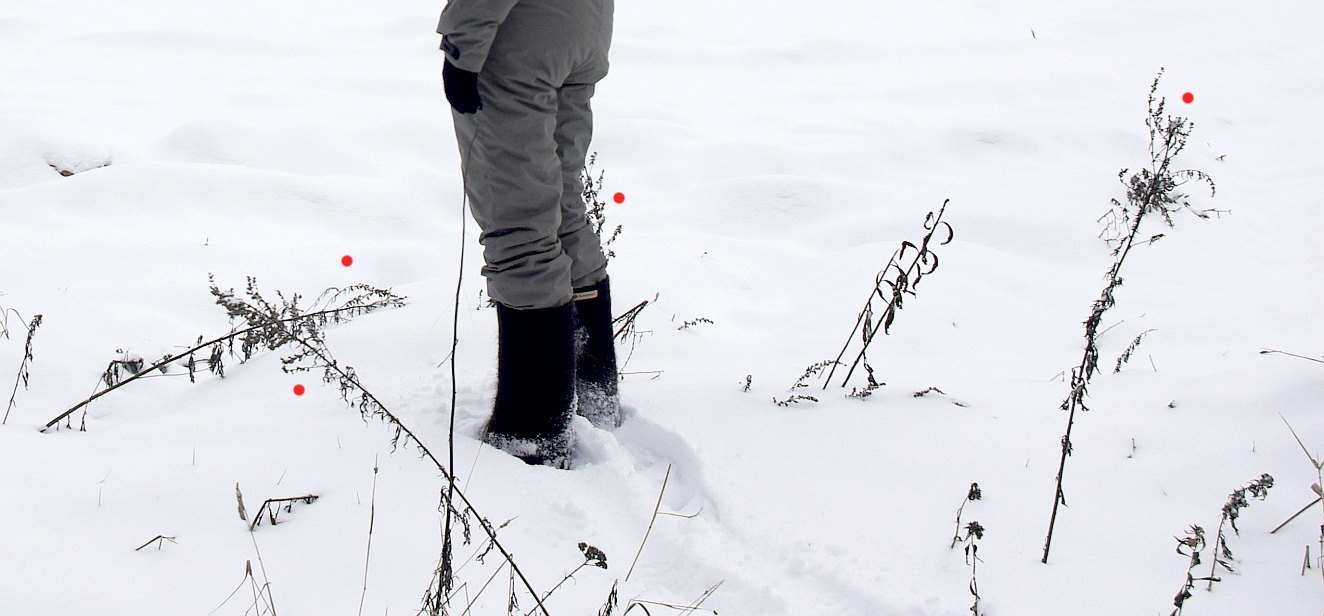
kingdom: Plantae
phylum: Tracheophyta
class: Magnoliopsida
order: Asterales
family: Asteraceae
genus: Artemisia
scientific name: Artemisia vulgaris
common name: Mugwort
